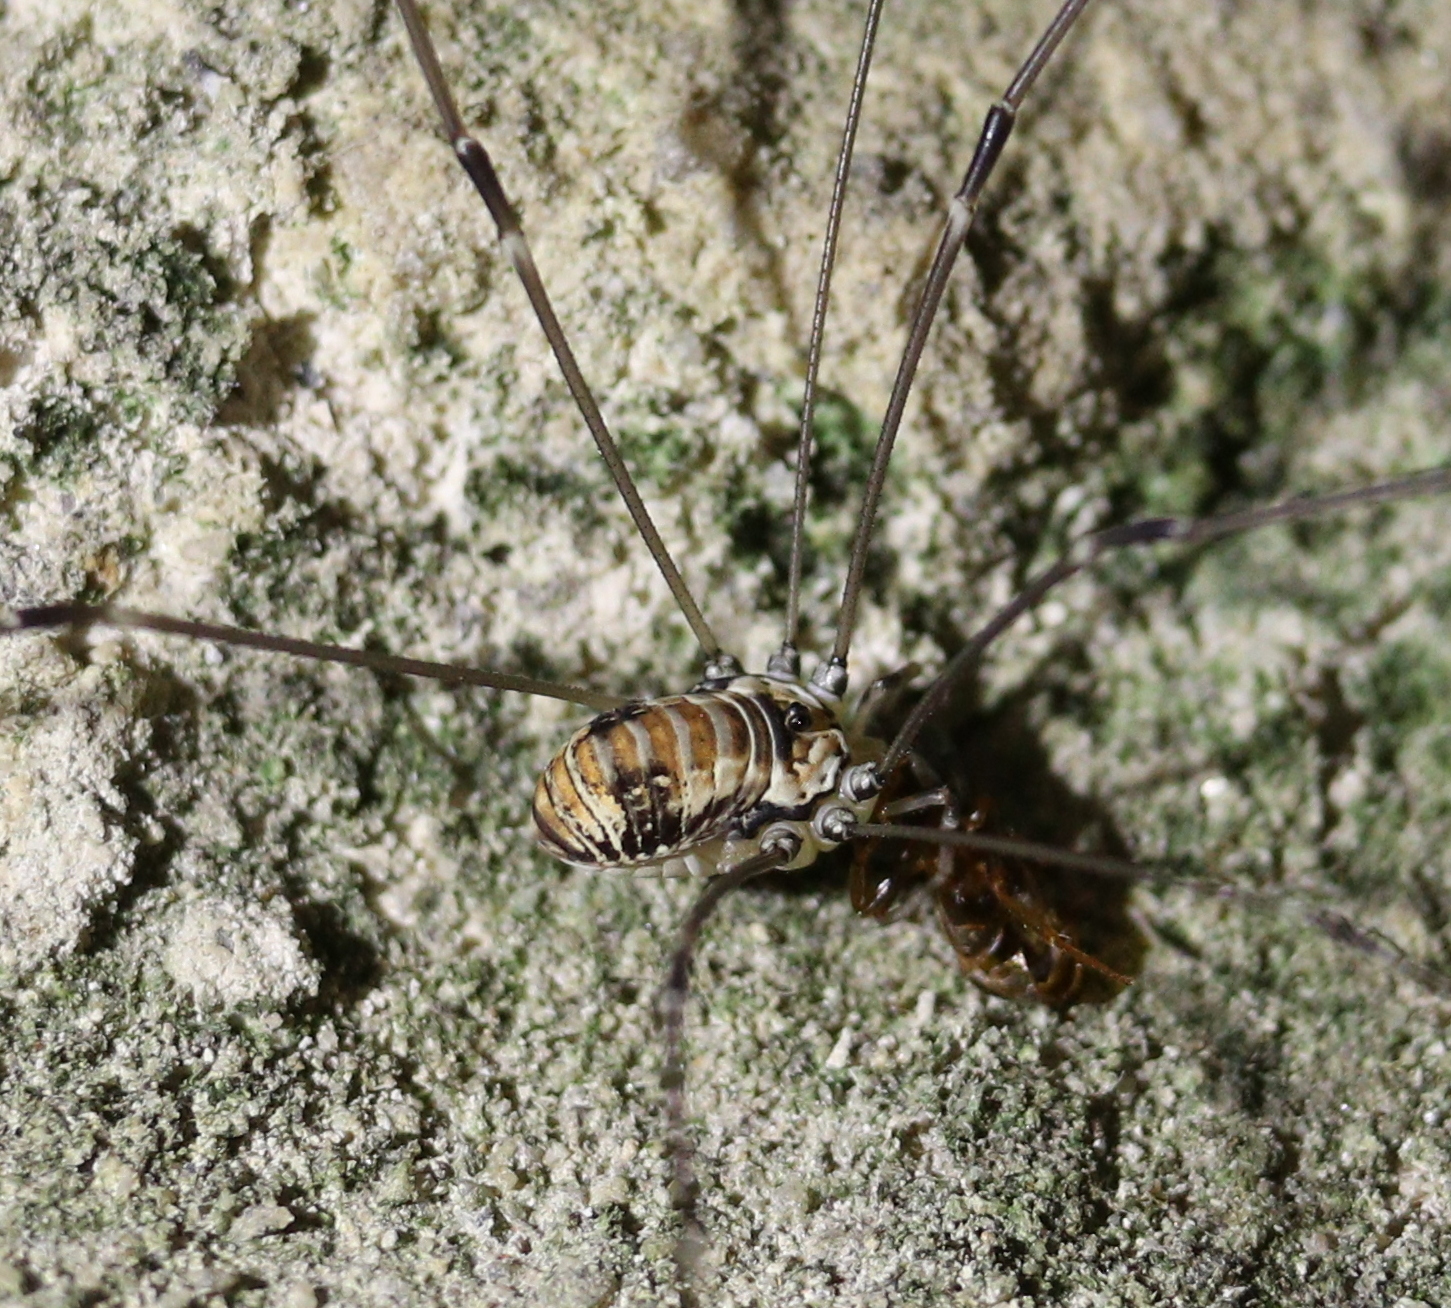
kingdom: Animalia
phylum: Arthropoda
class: Arachnida
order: Opiliones
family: Sclerosomatidae
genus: Leiobunum
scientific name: Leiobunum limbatum
